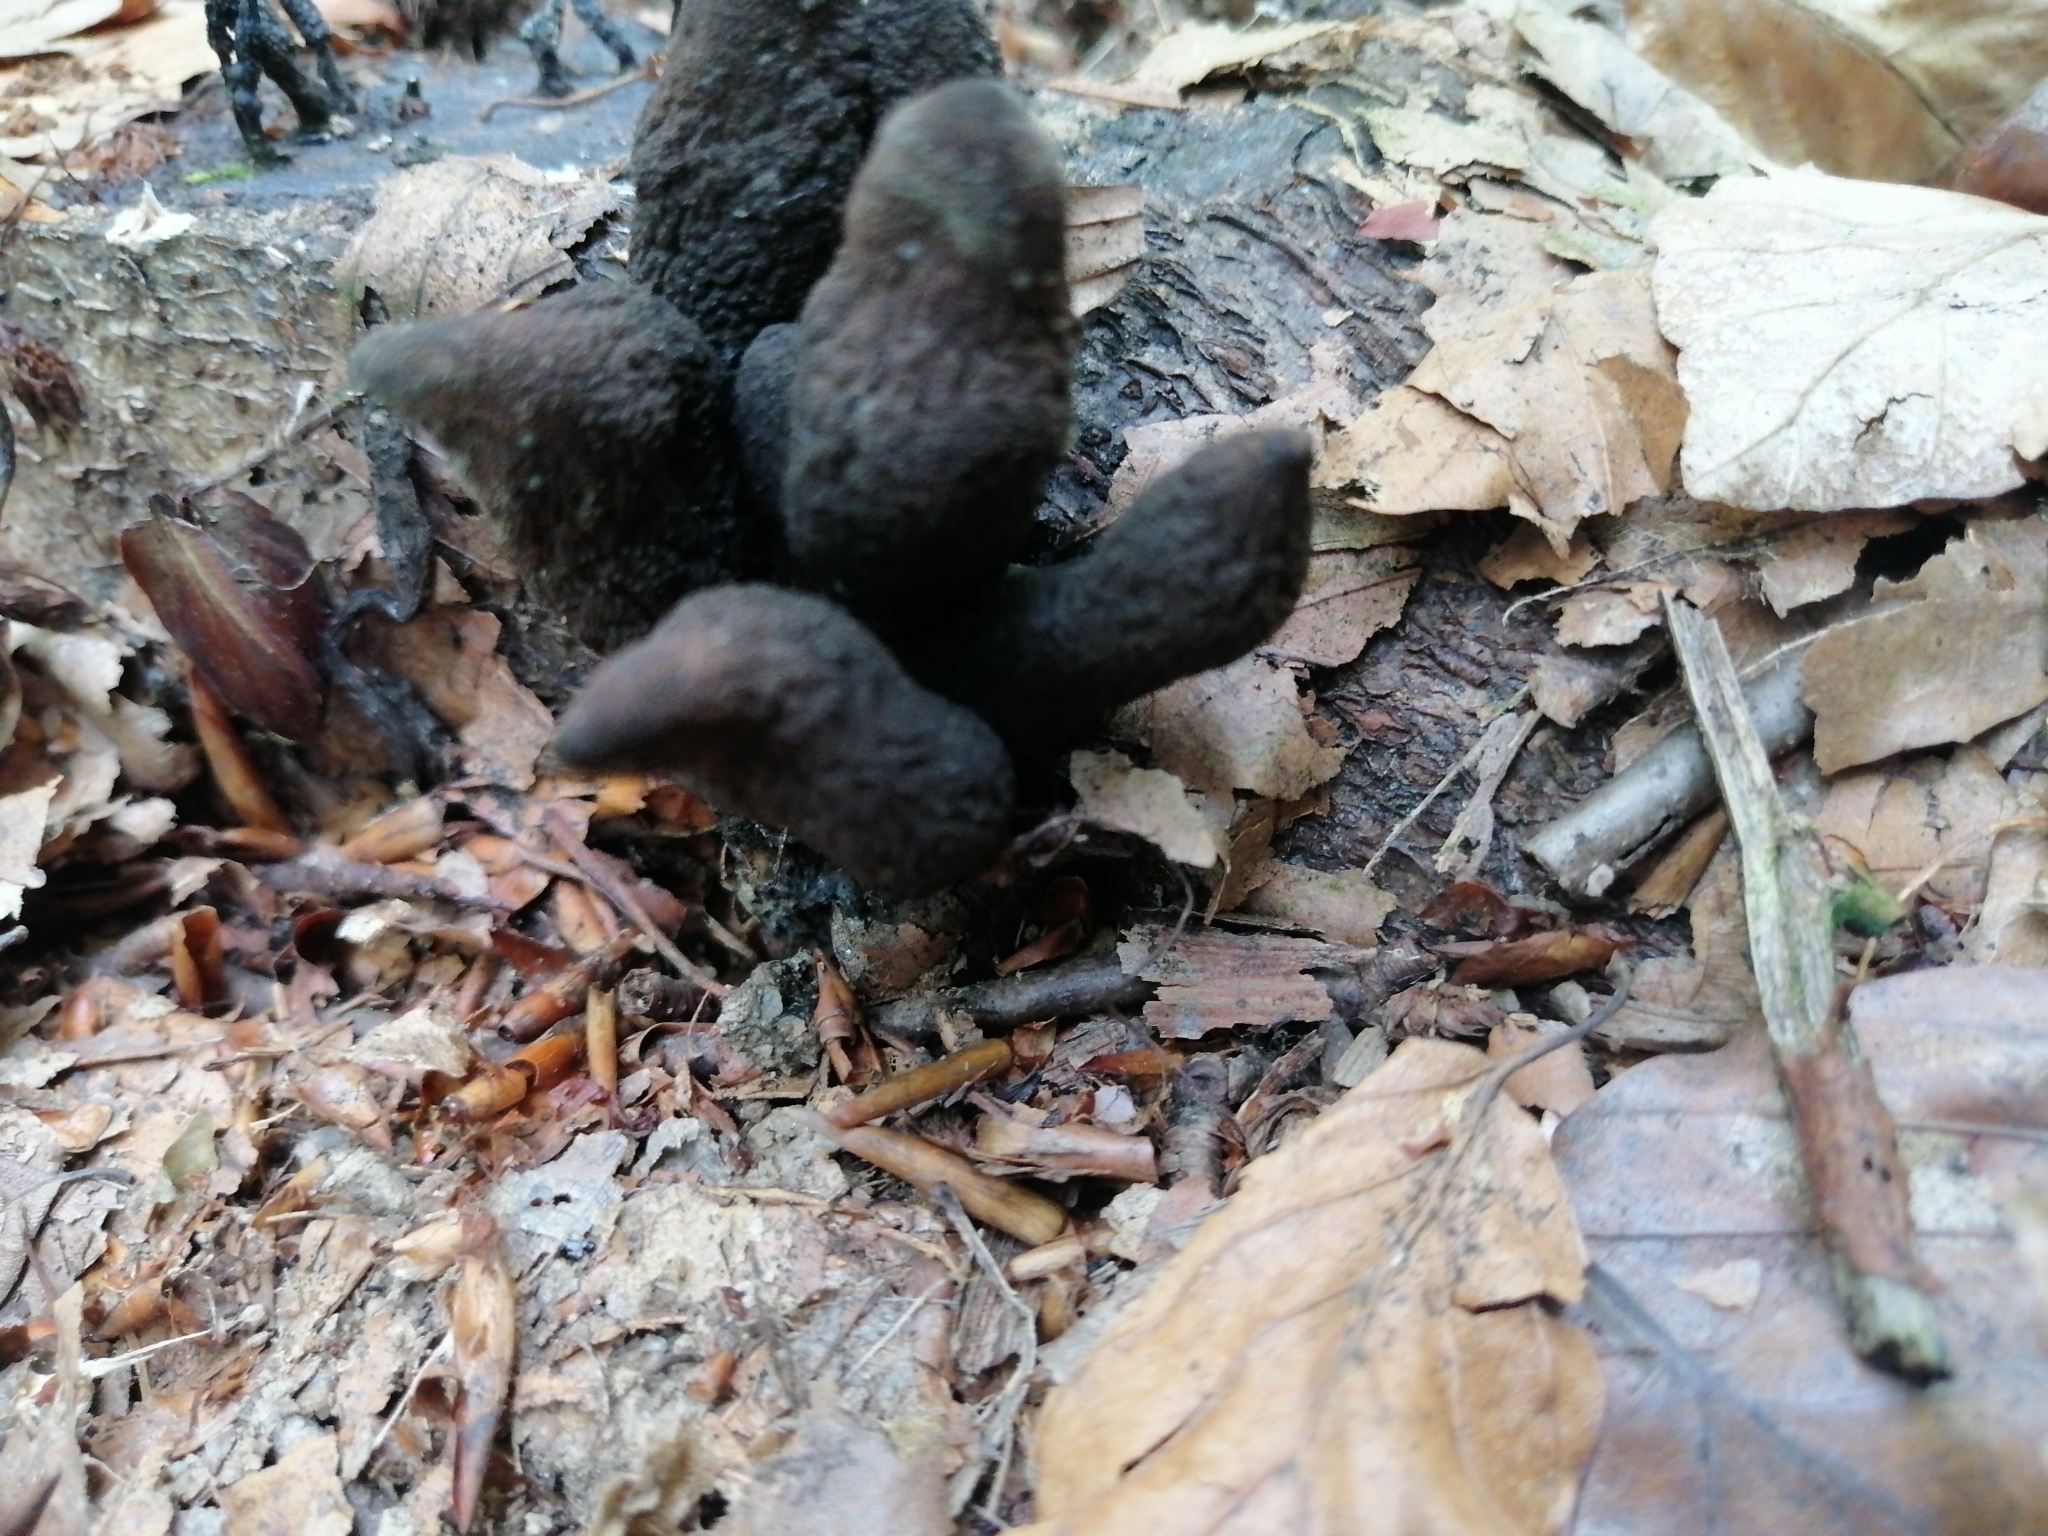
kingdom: Fungi
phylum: Ascomycota
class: Sordariomycetes
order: Xylariales
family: Xylariaceae
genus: Xylaria
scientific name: Xylaria polymorpha
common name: Dead man's fingers
